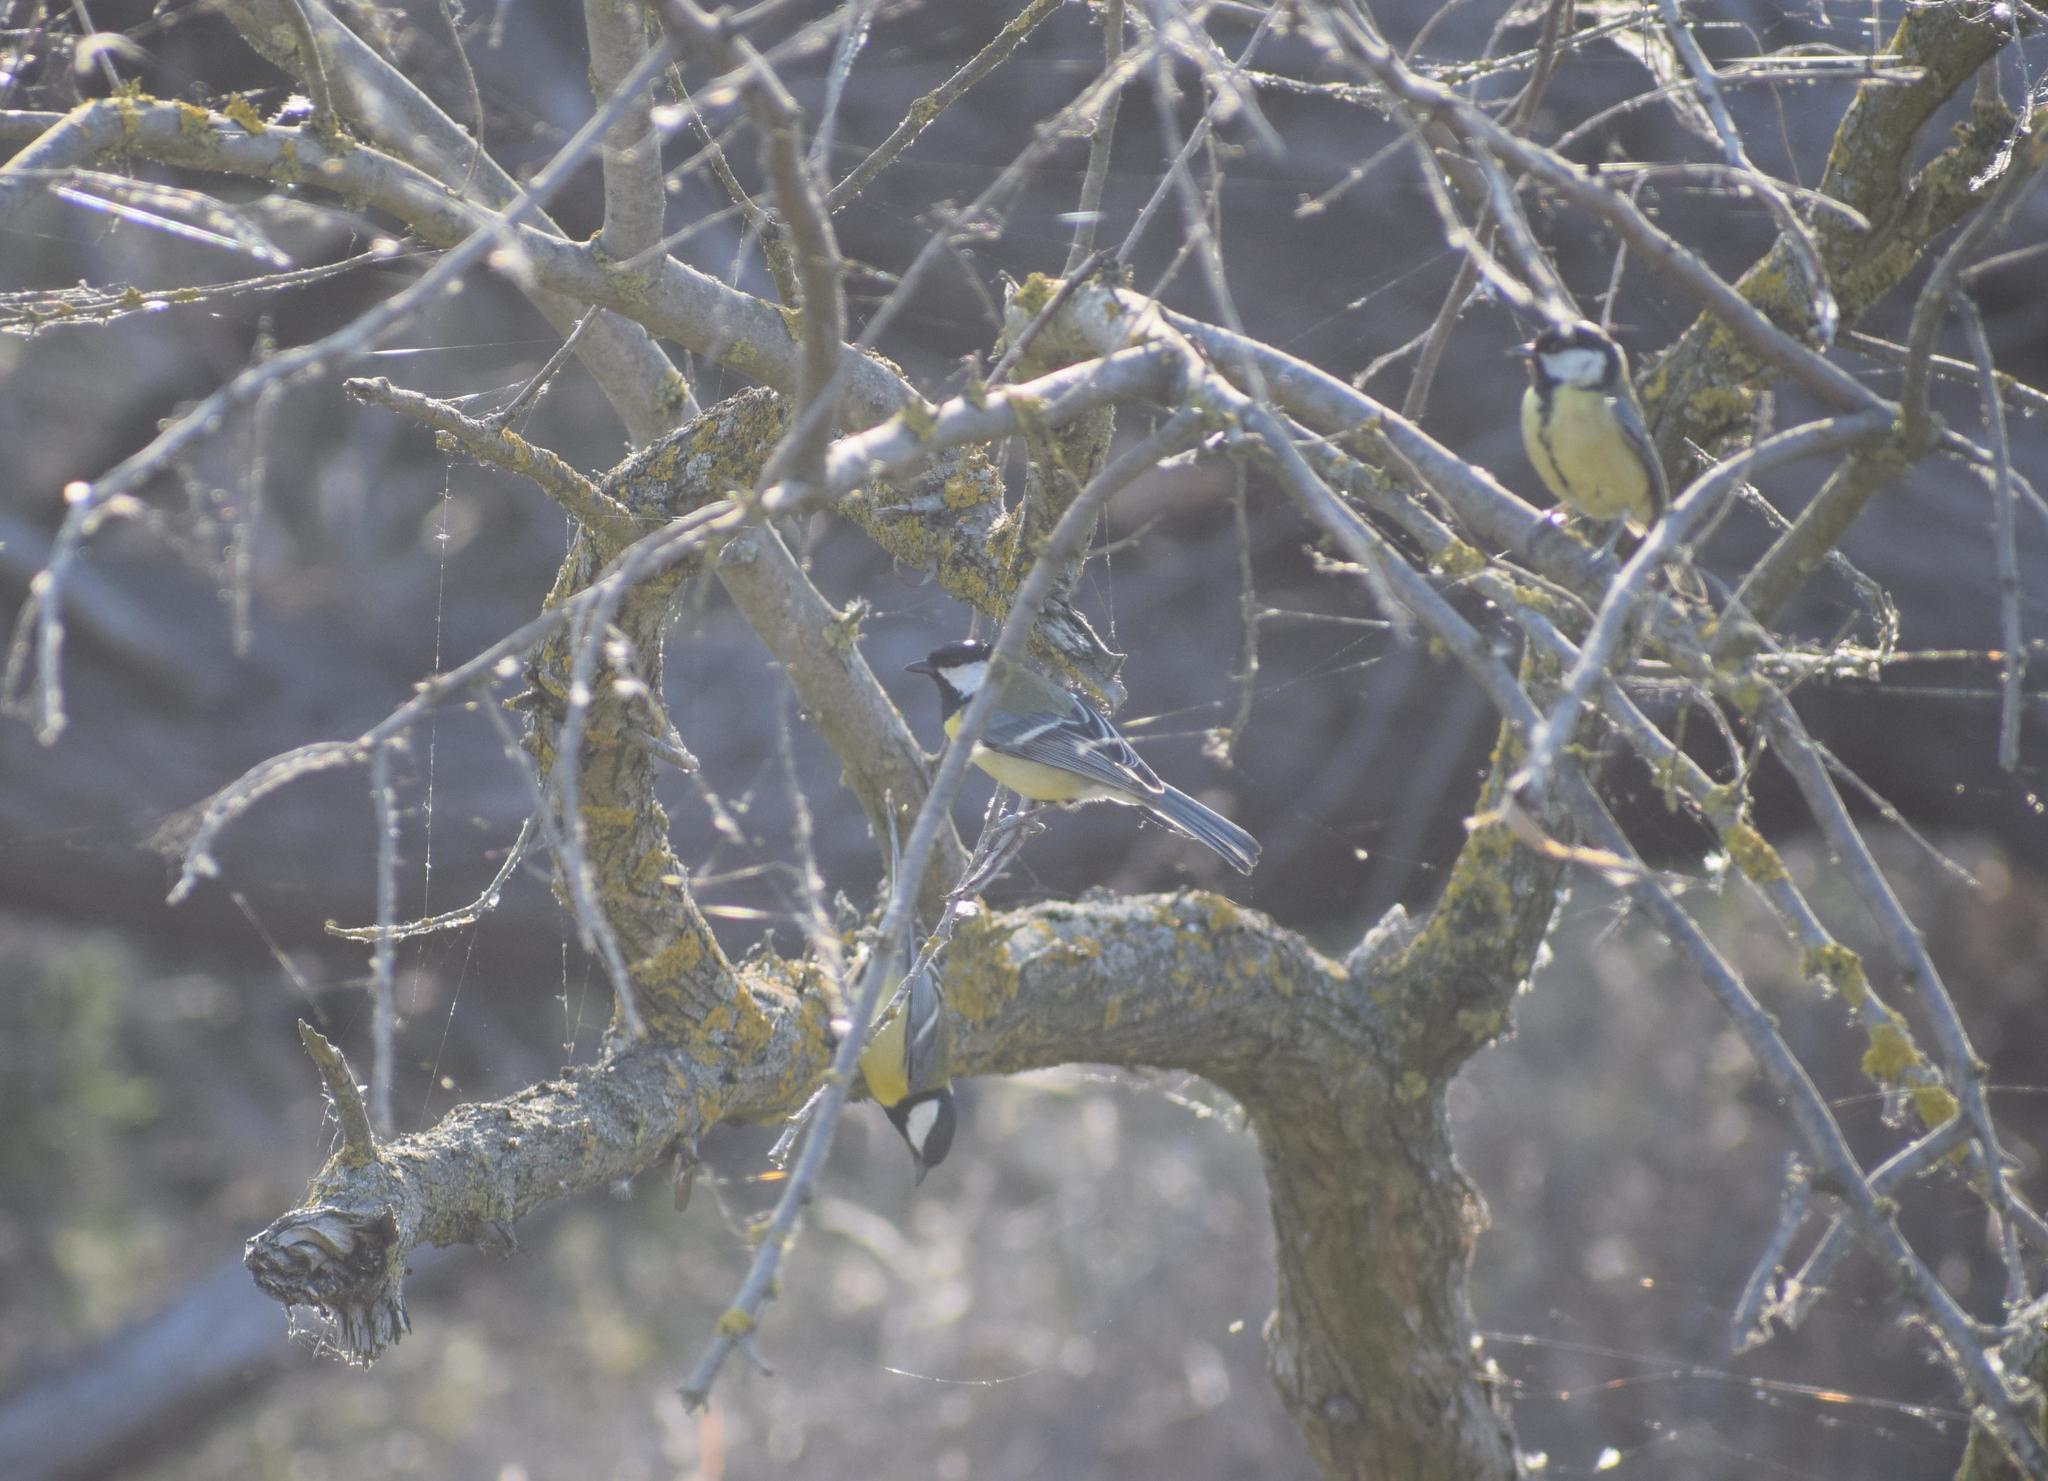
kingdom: Animalia
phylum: Chordata
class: Aves
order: Passeriformes
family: Paridae
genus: Parus
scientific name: Parus major
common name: Great tit
